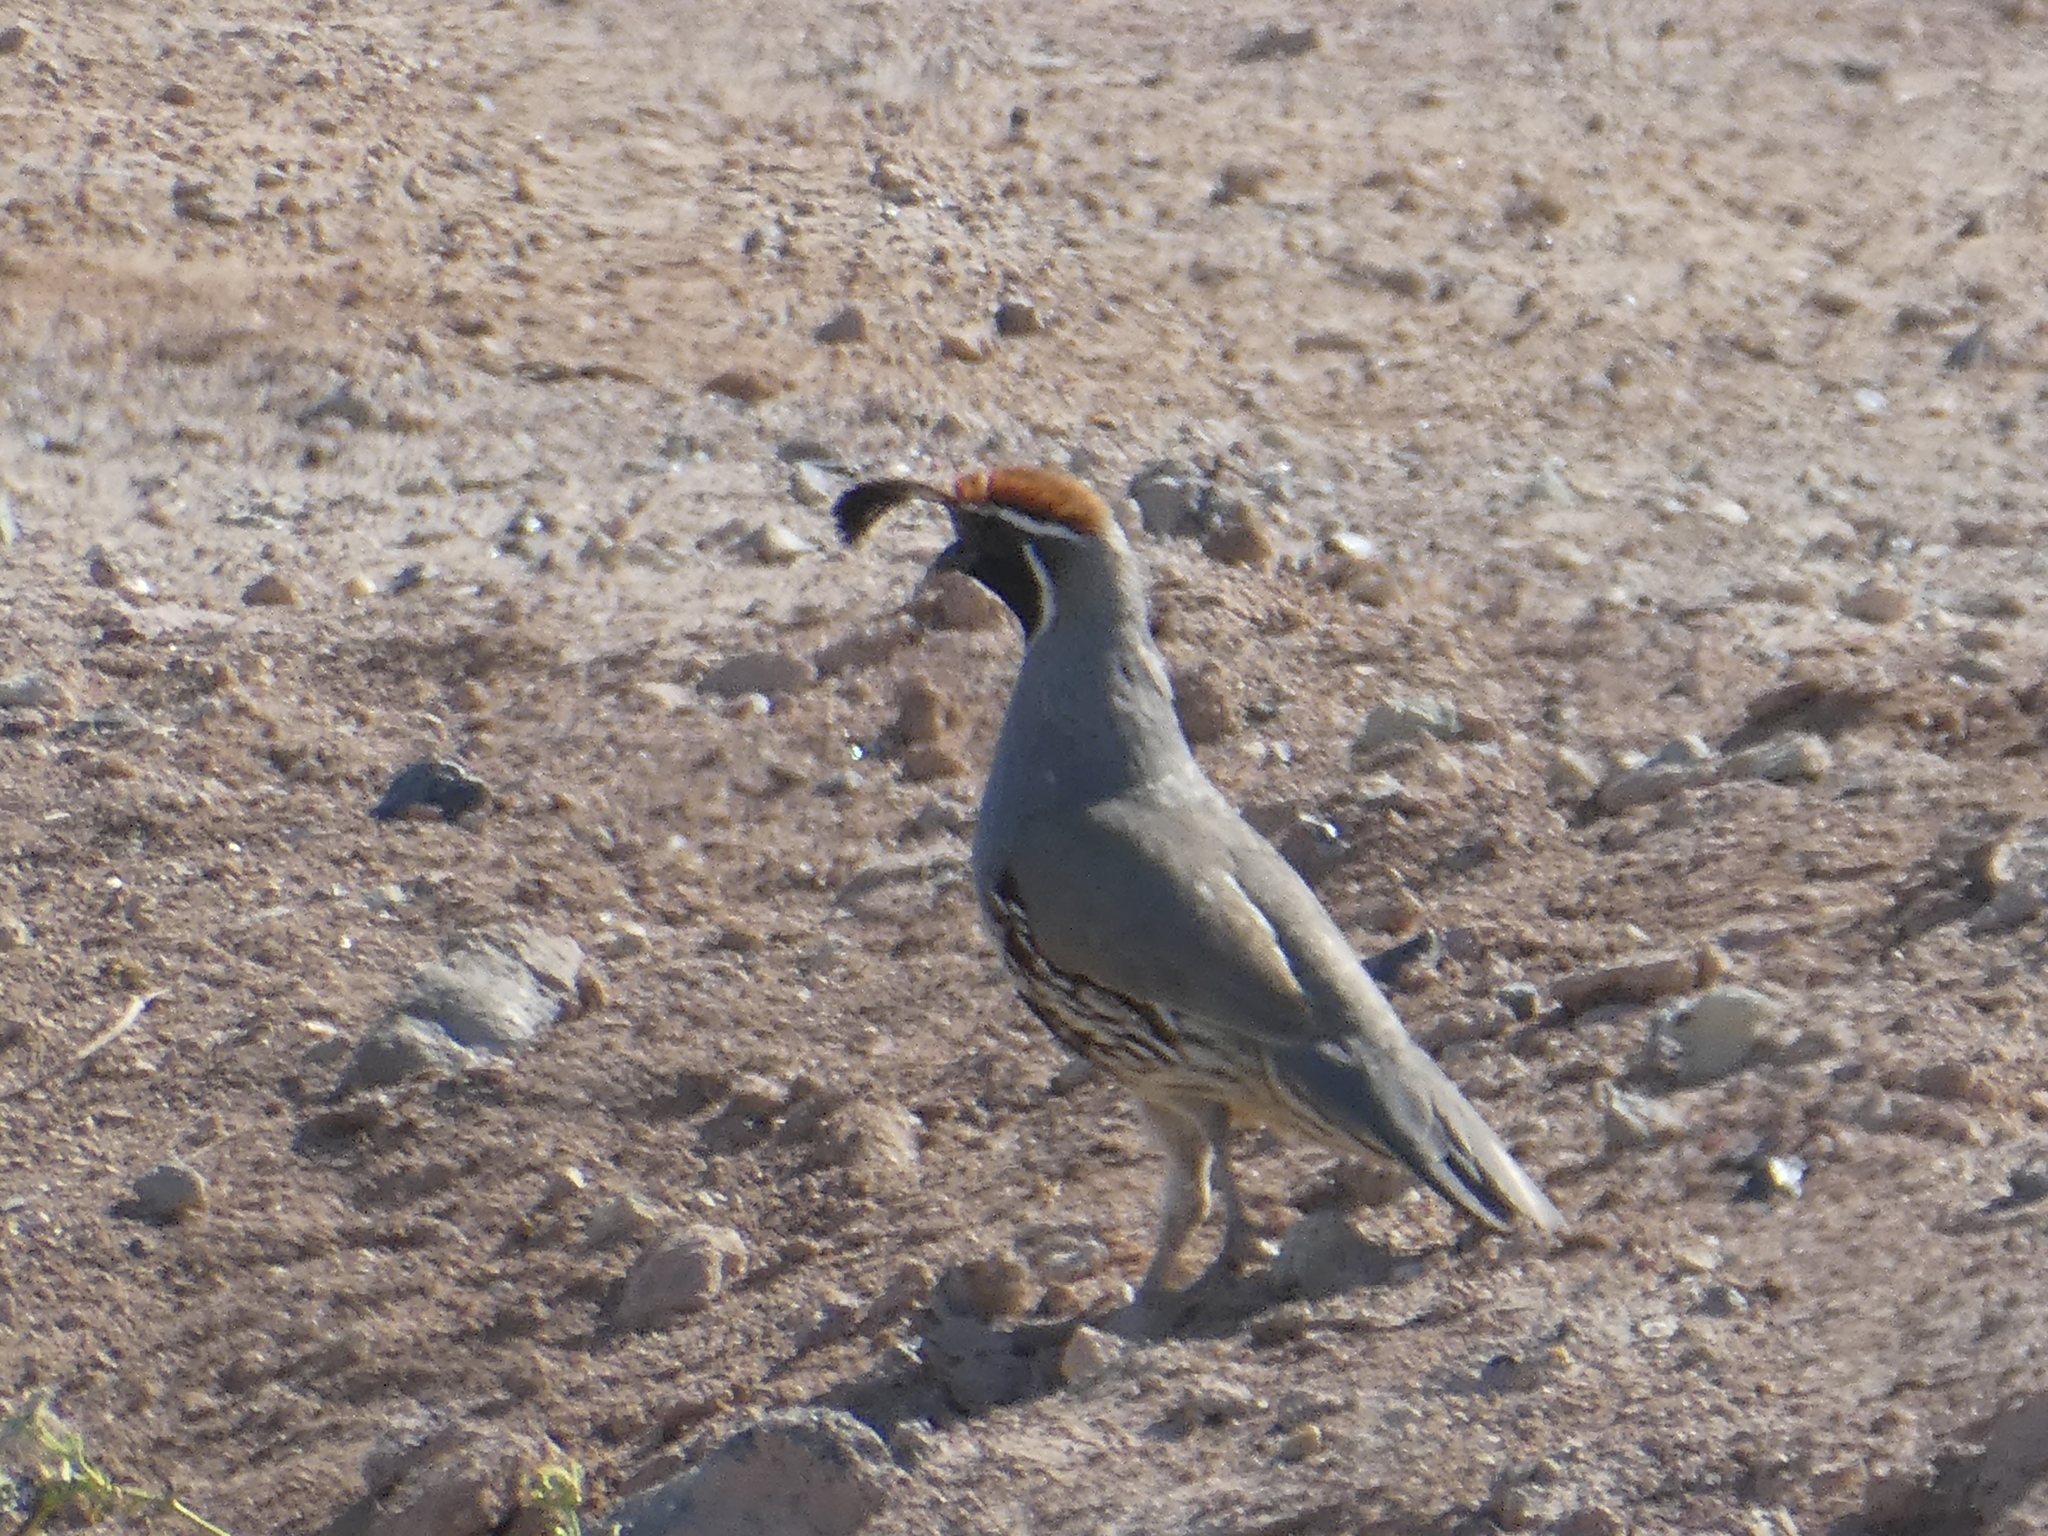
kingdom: Animalia
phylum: Chordata
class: Aves
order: Galliformes
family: Odontophoridae
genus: Callipepla
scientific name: Callipepla gambelii
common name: Gambel's quail
